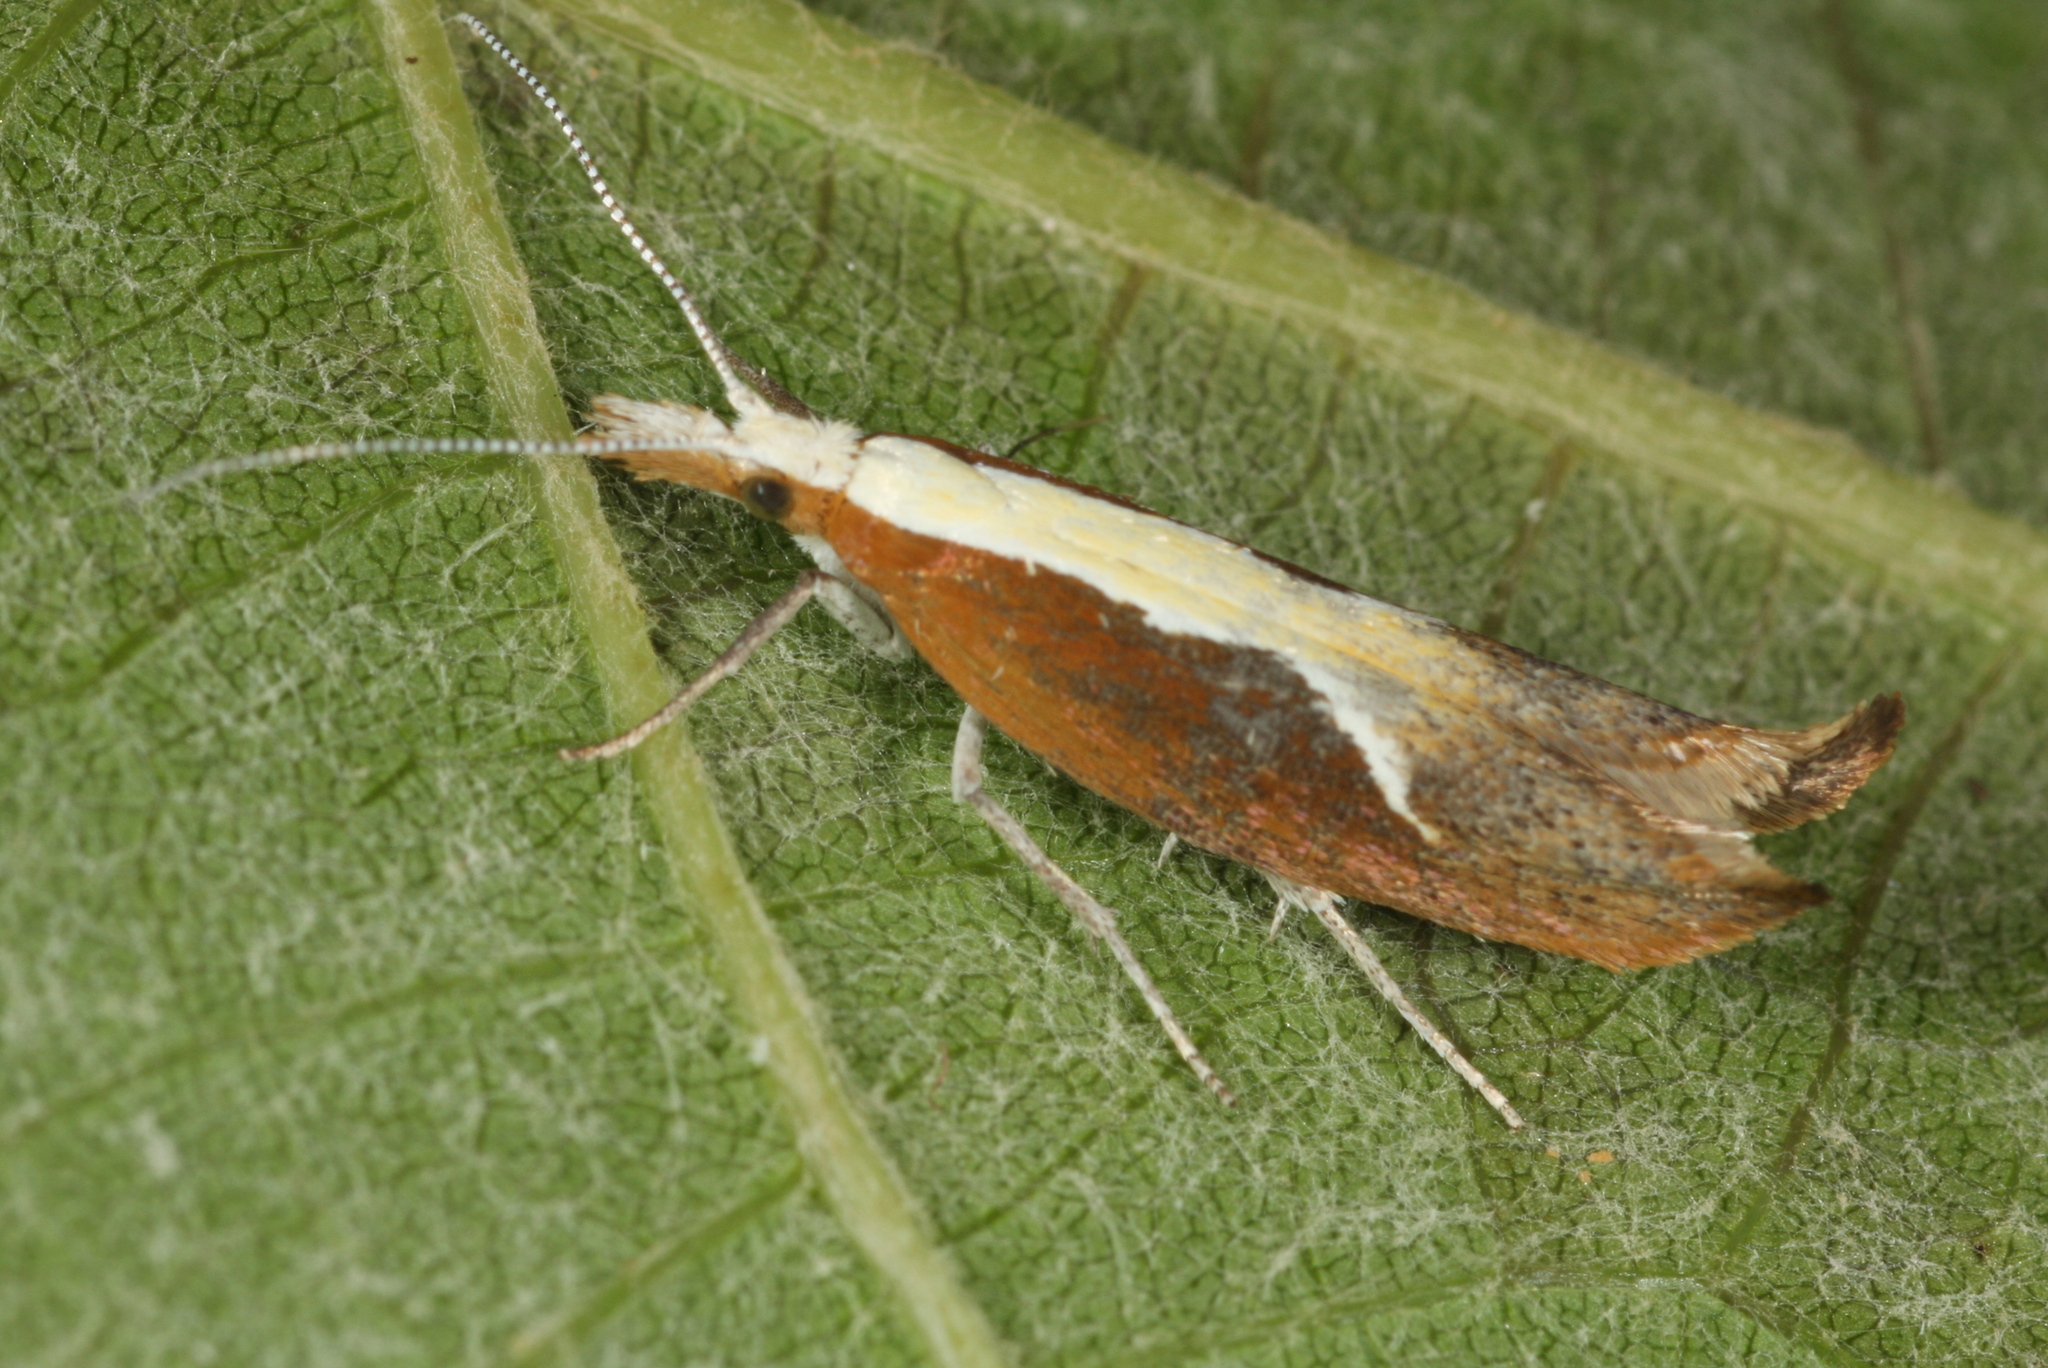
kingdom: Animalia
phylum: Arthropoda
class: Insecta
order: Lepidoptera
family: Ypsolophidae
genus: Ypsolopha
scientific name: Ypsolopha dentella
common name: Honeysuckle moth
